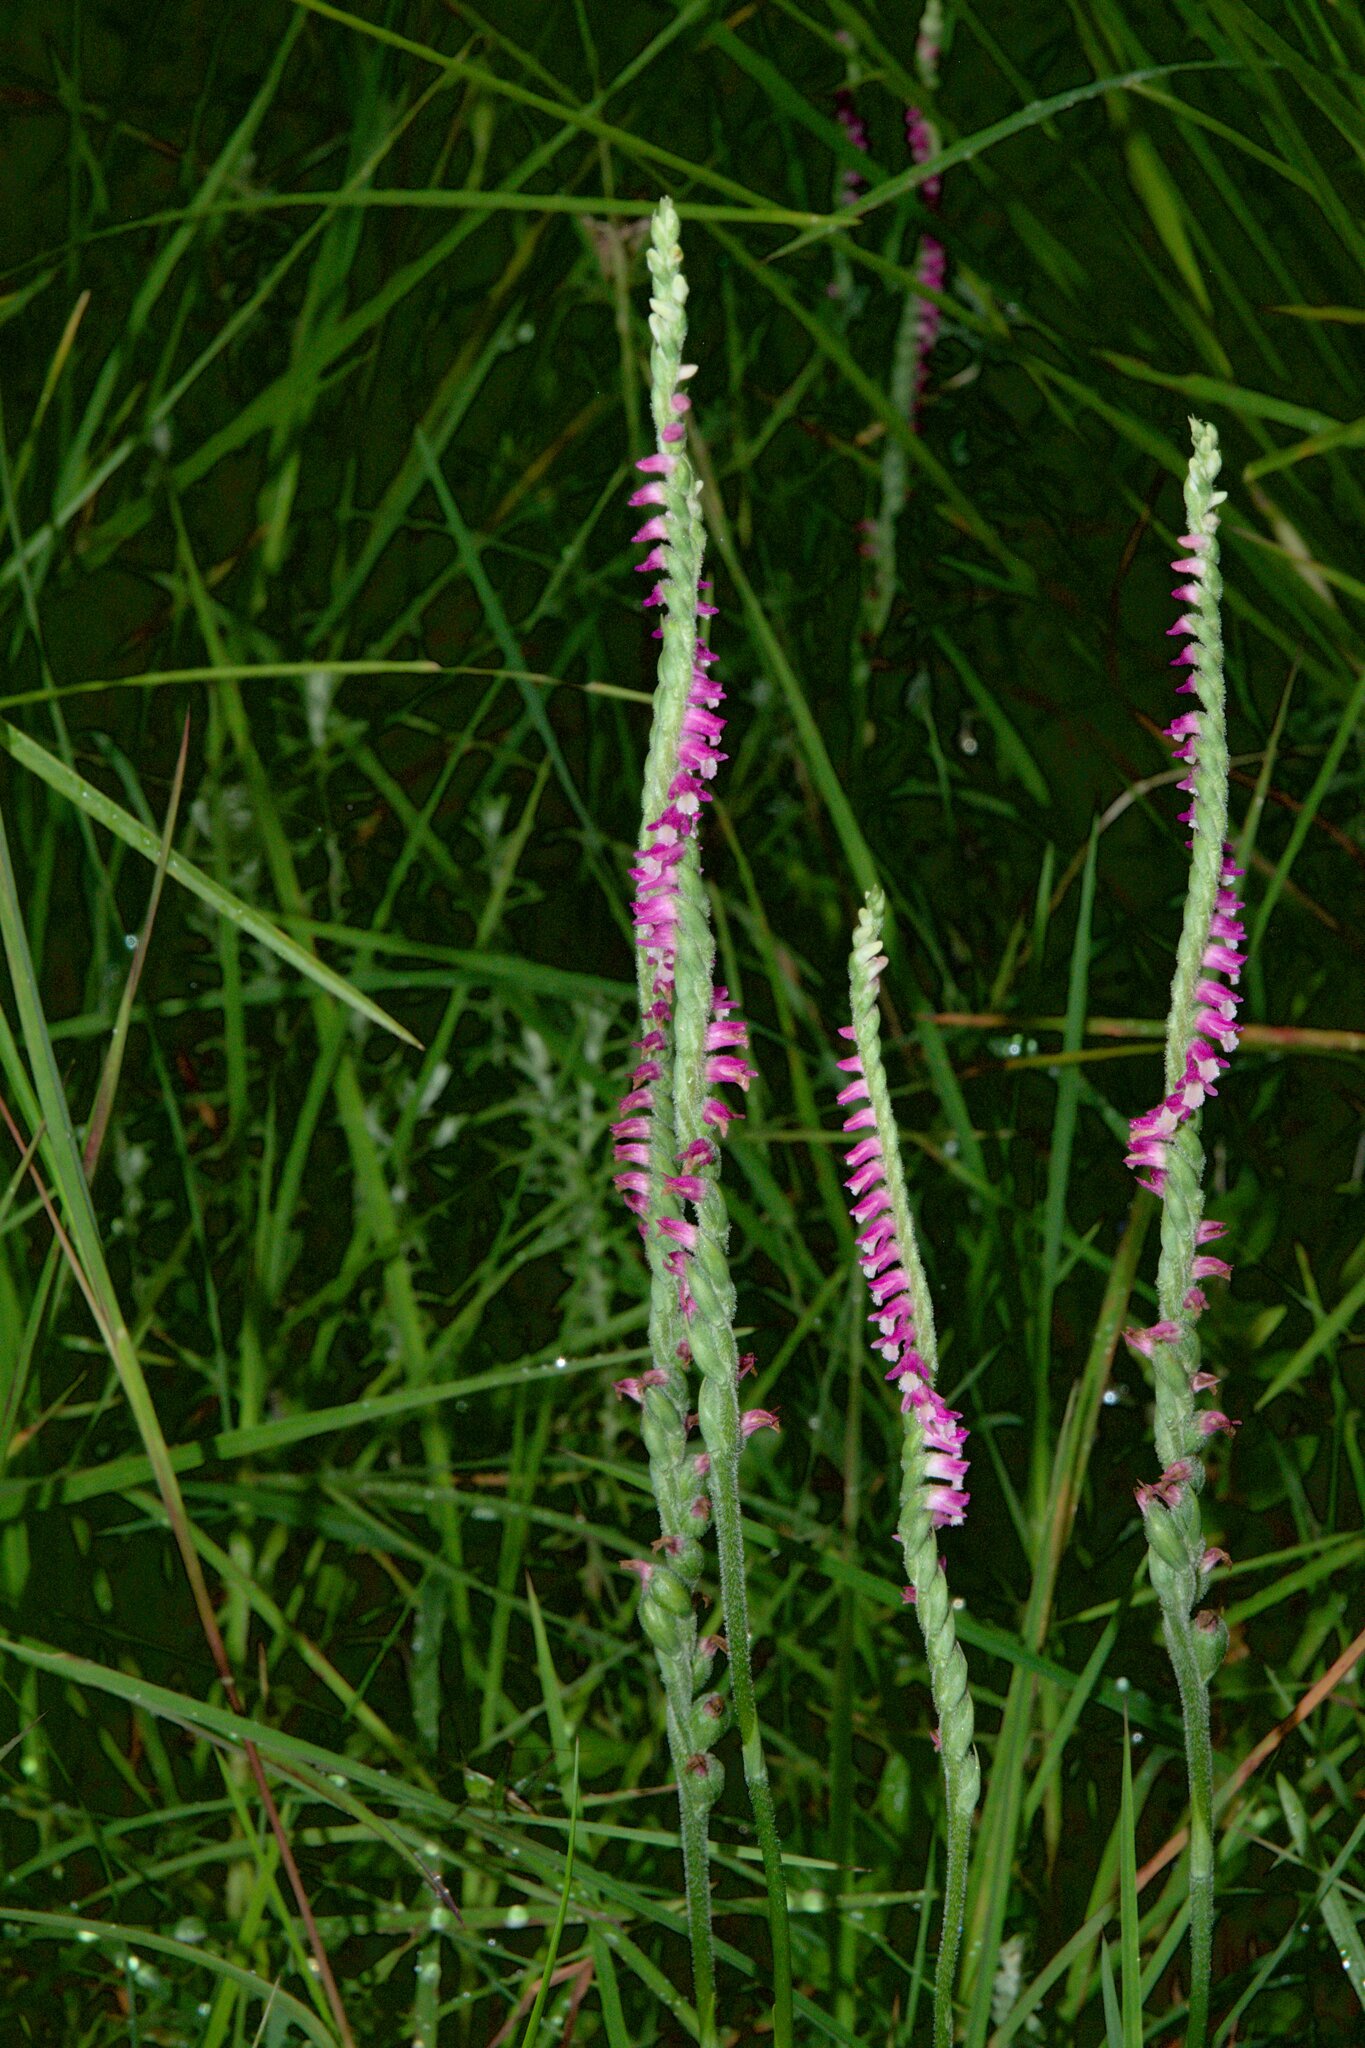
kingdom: Plantae
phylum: Tracheophyta
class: Liliopsida
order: Asparagales
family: Orchidaceae
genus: Spiranthes
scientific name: Spiranthes australis
